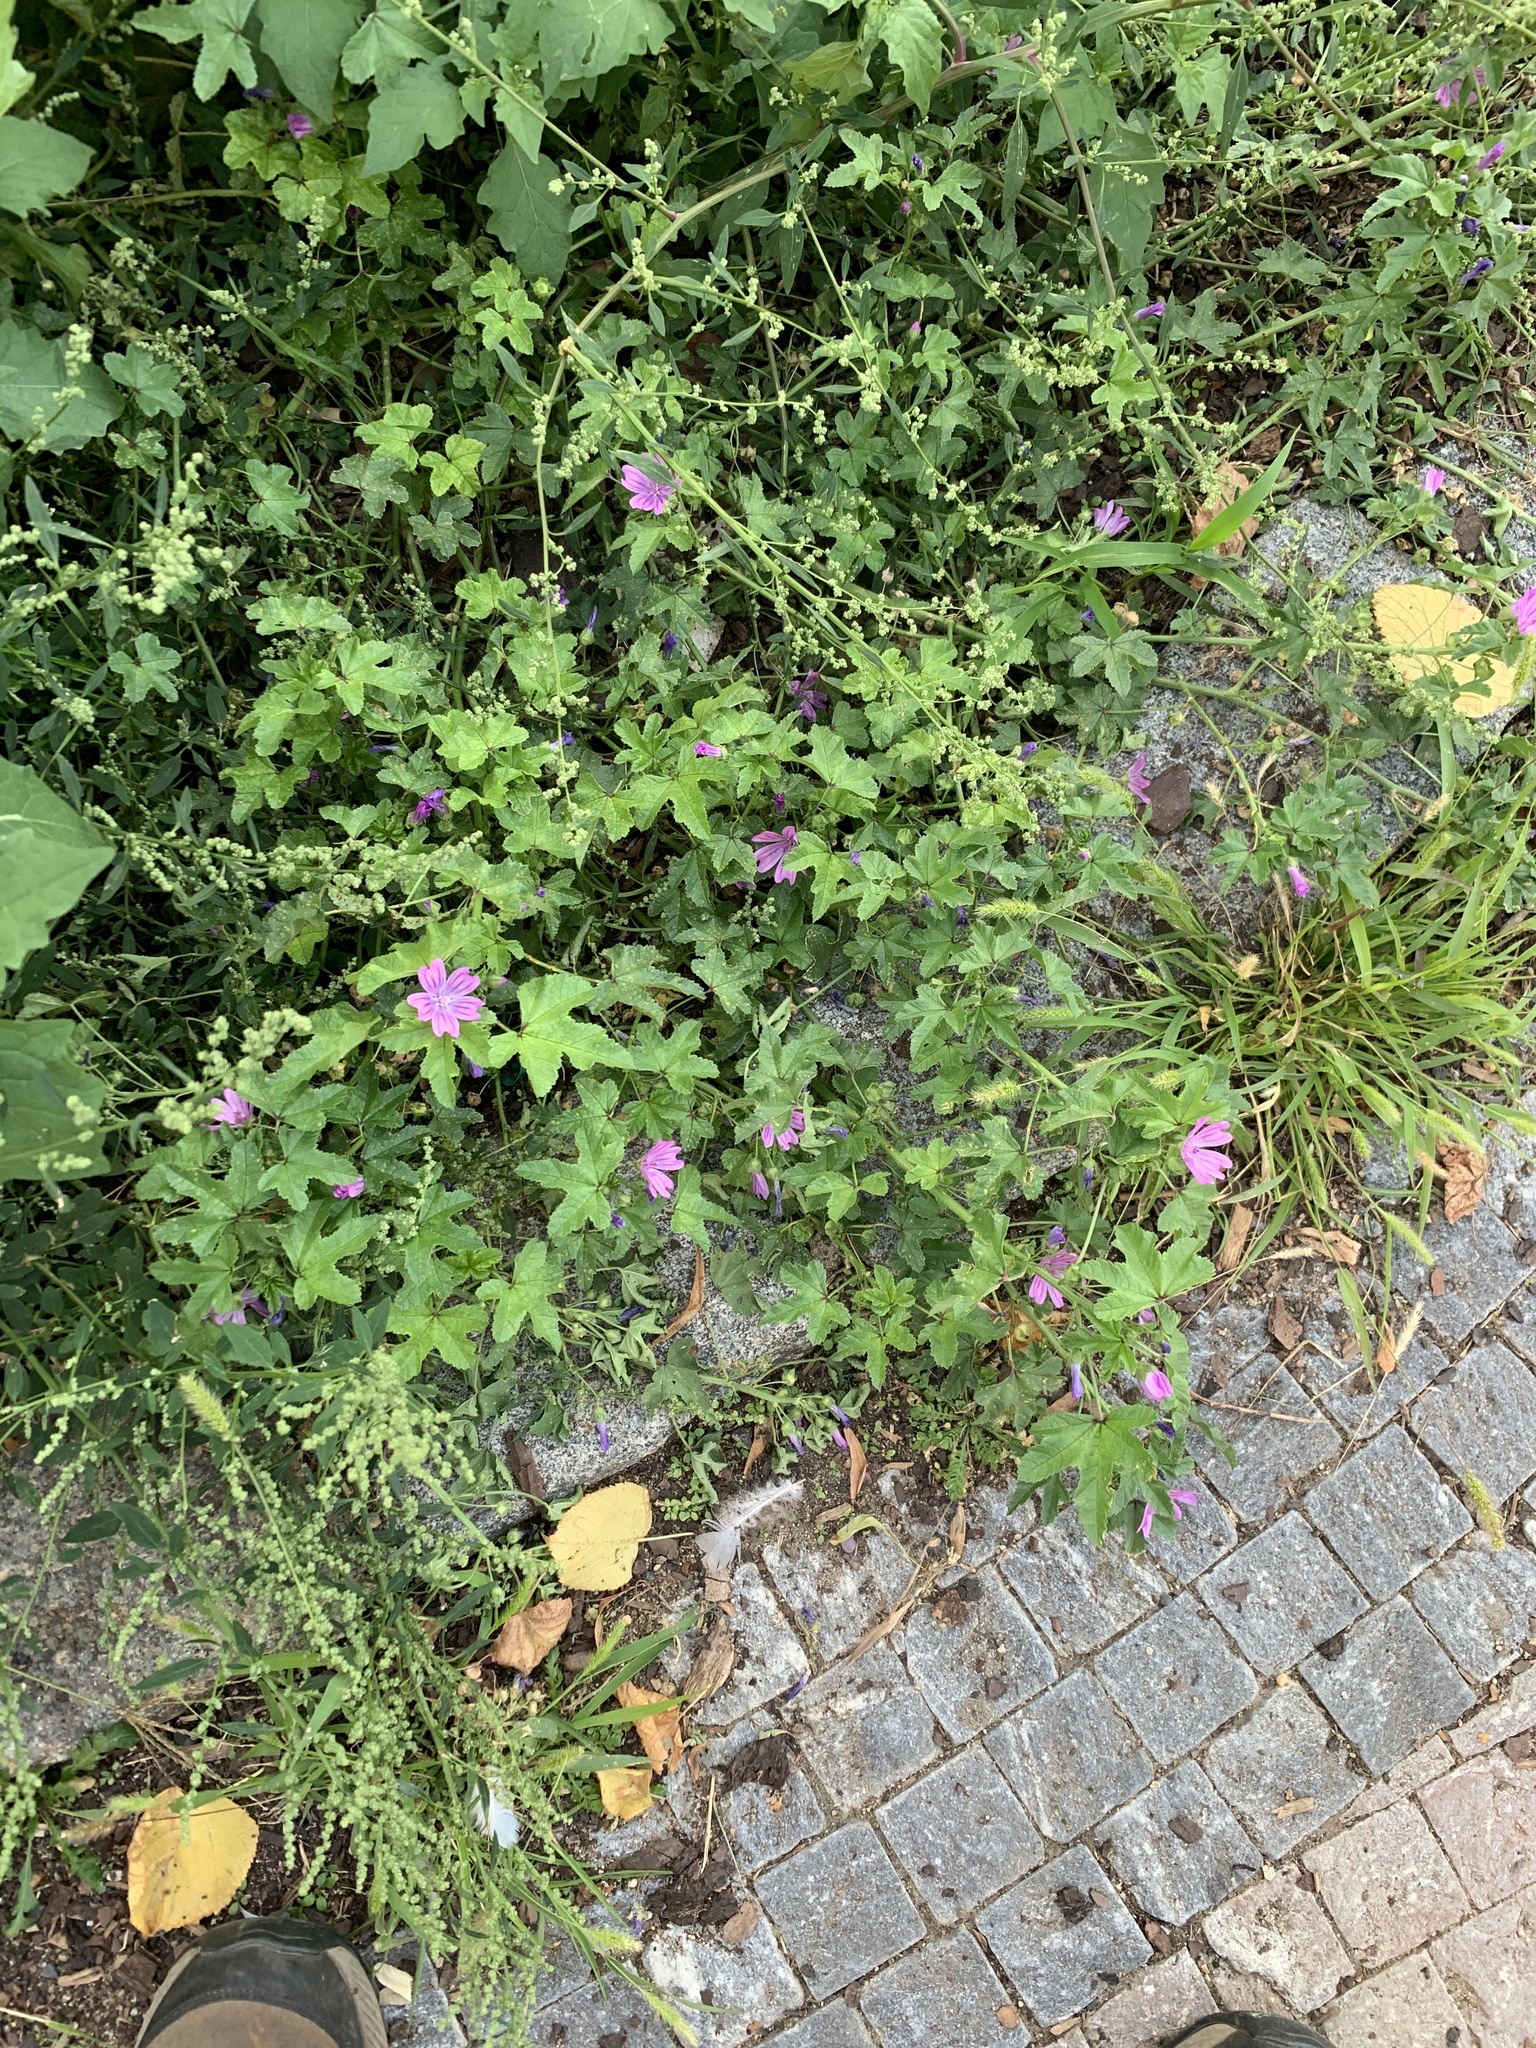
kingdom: Plantae
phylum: Tracheophyta
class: Magnoliopsida
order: Malvales
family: Malvaceae
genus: Malva
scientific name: Malva sylvestris
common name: Common mallow
